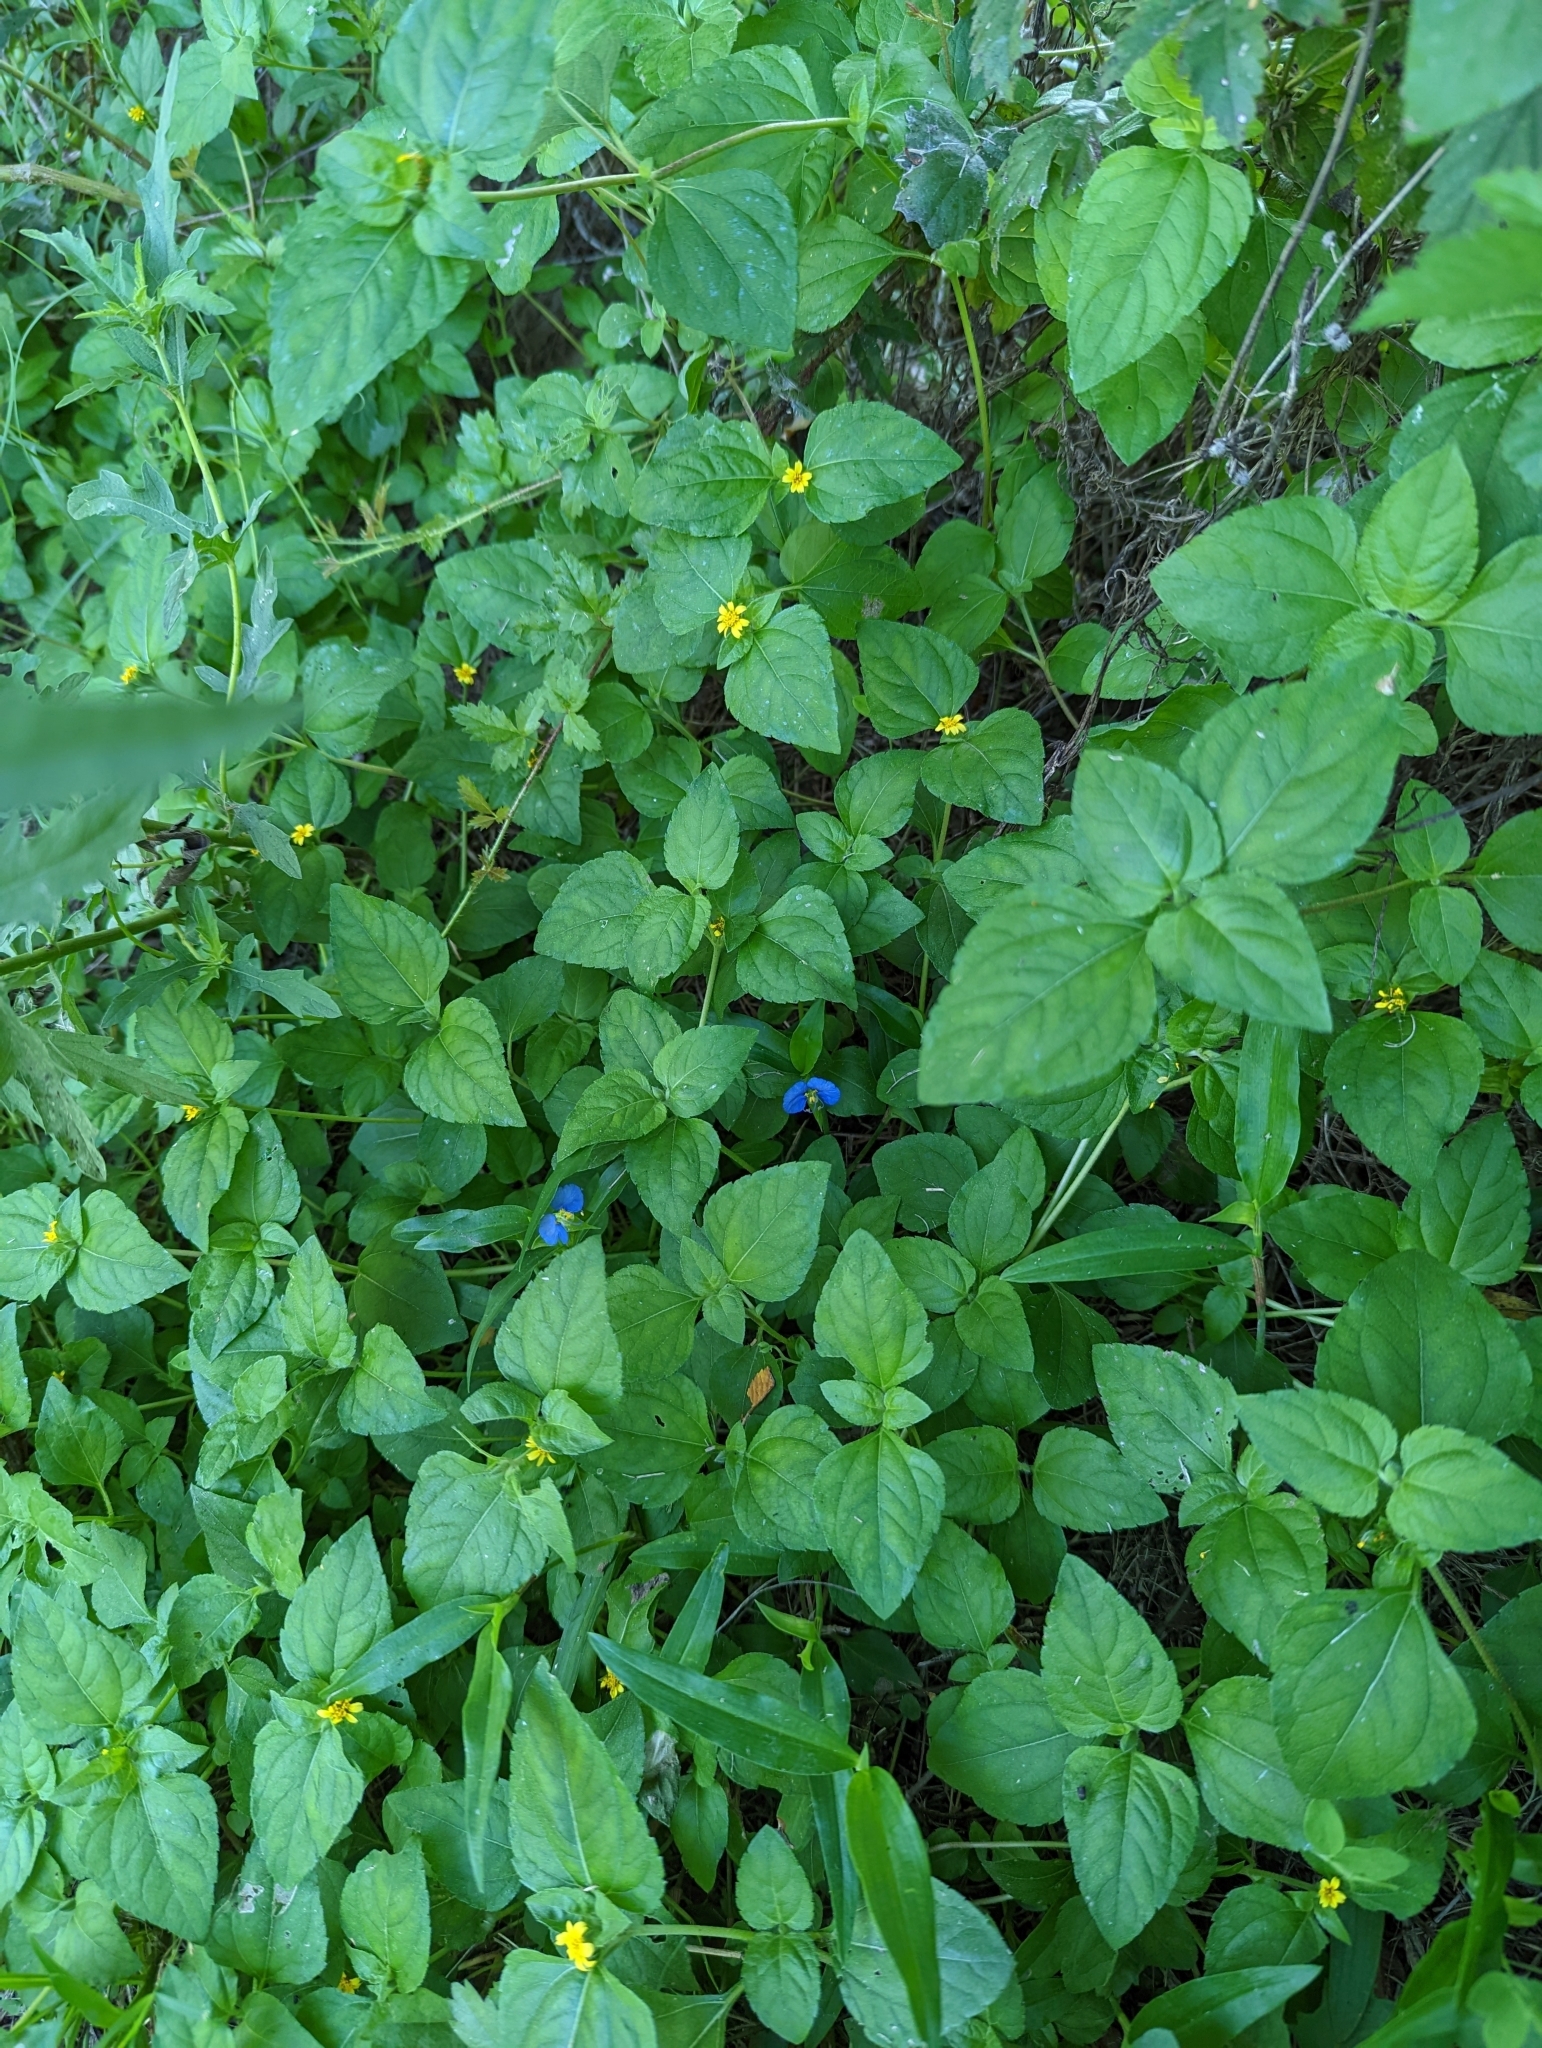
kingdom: Plantae
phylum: Tracheophyta
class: Magnoliopsida
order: Asterales
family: Asteraceae
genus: Calyptocarpus
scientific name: Calyptocarpus vialis
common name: Straggler daisy
